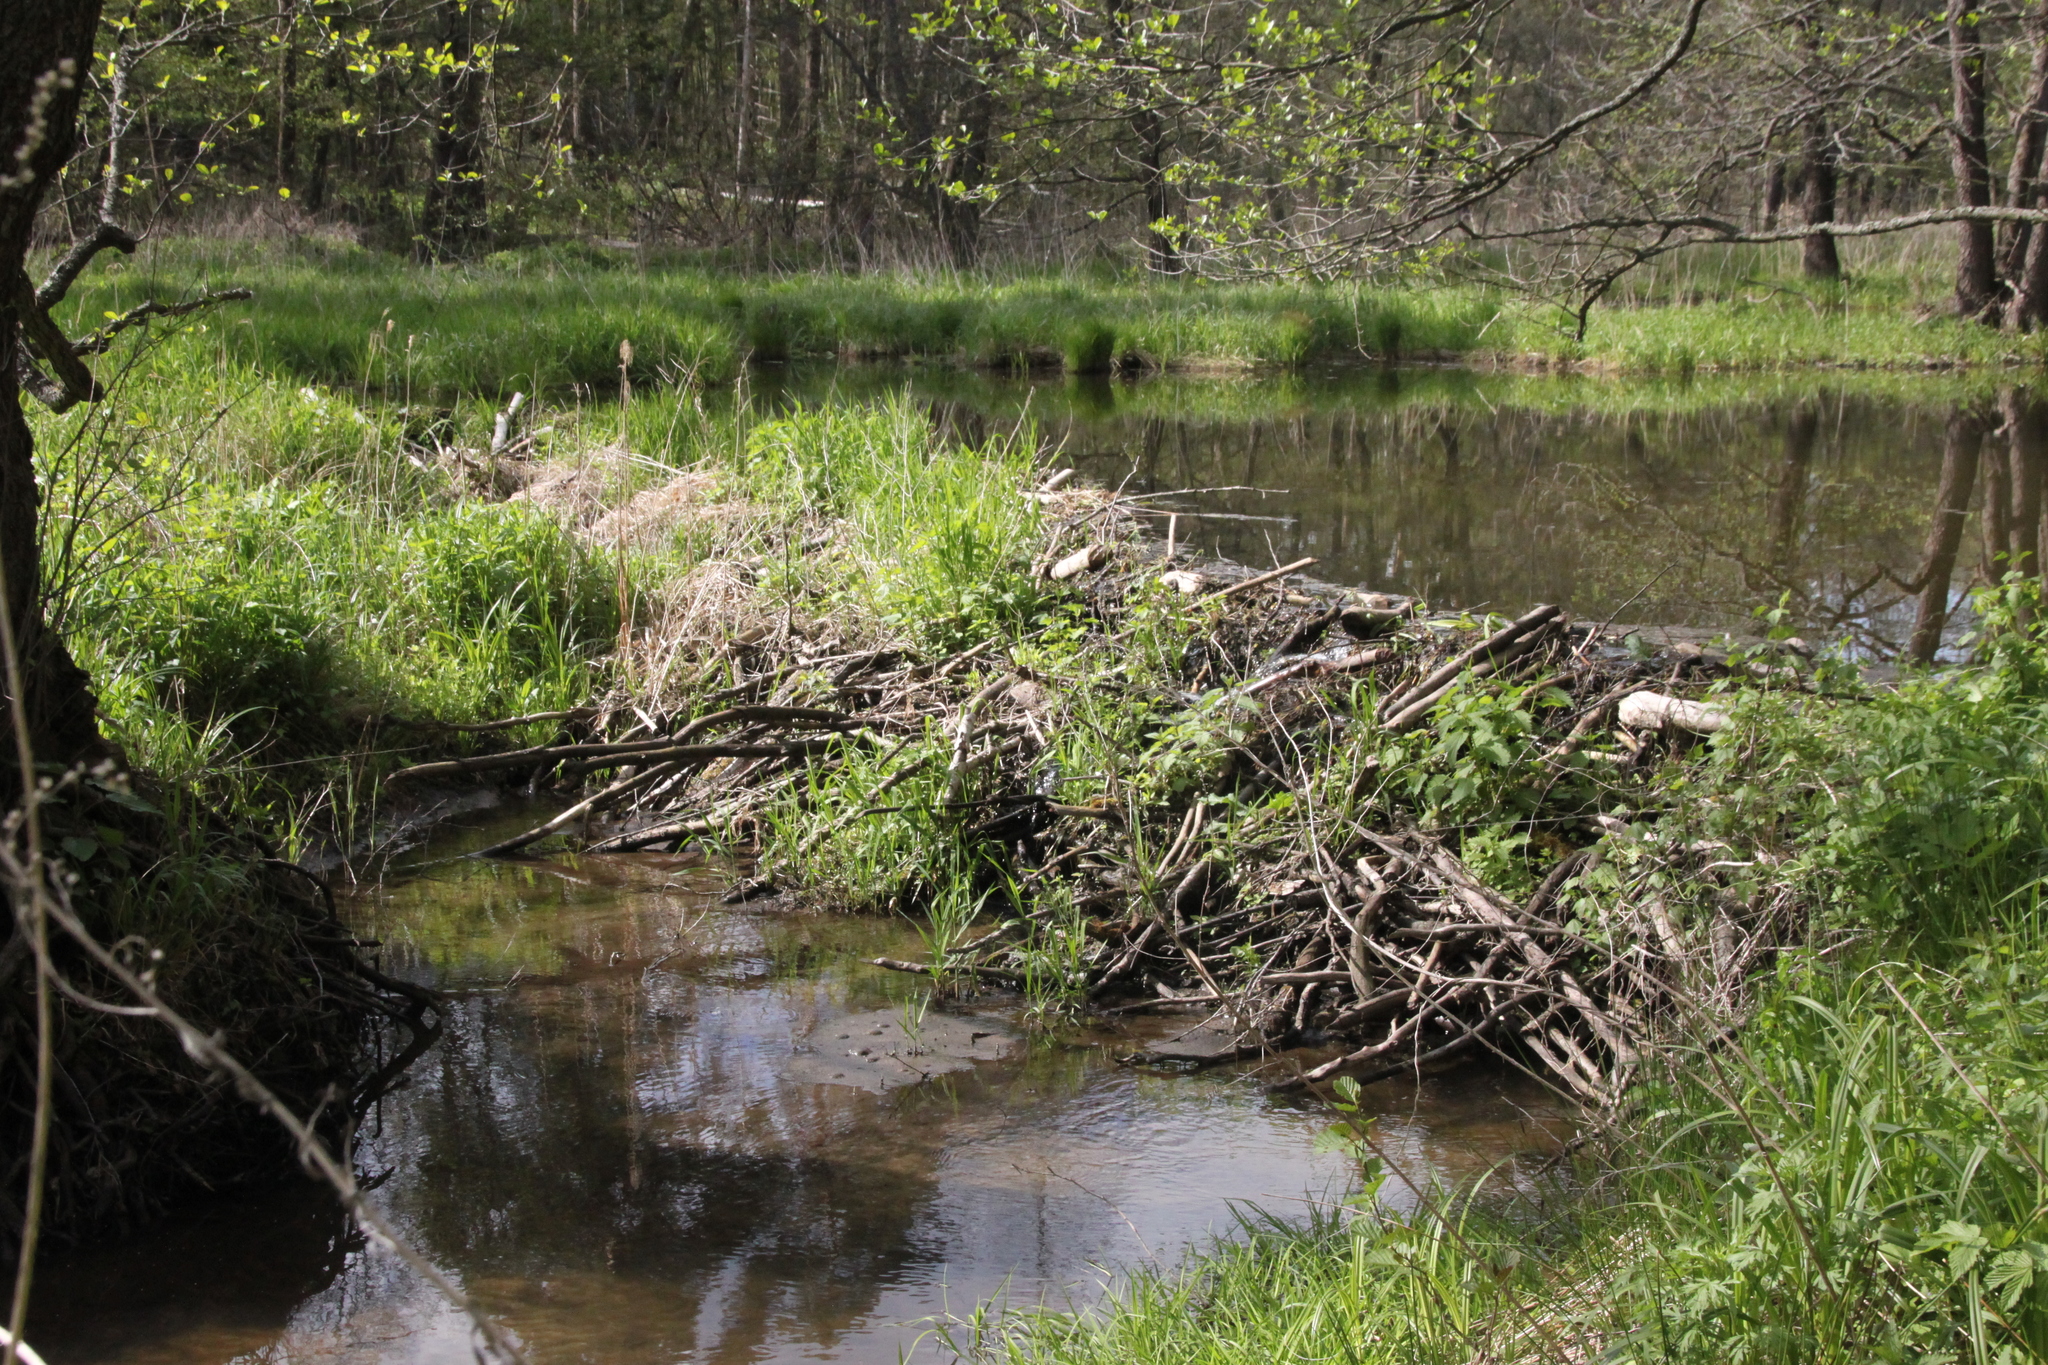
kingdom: Animalia
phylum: Chordata
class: Mammalia
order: Rodentia
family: Castoridae
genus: Castor
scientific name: Castor fiber
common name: Eurasian beaver
